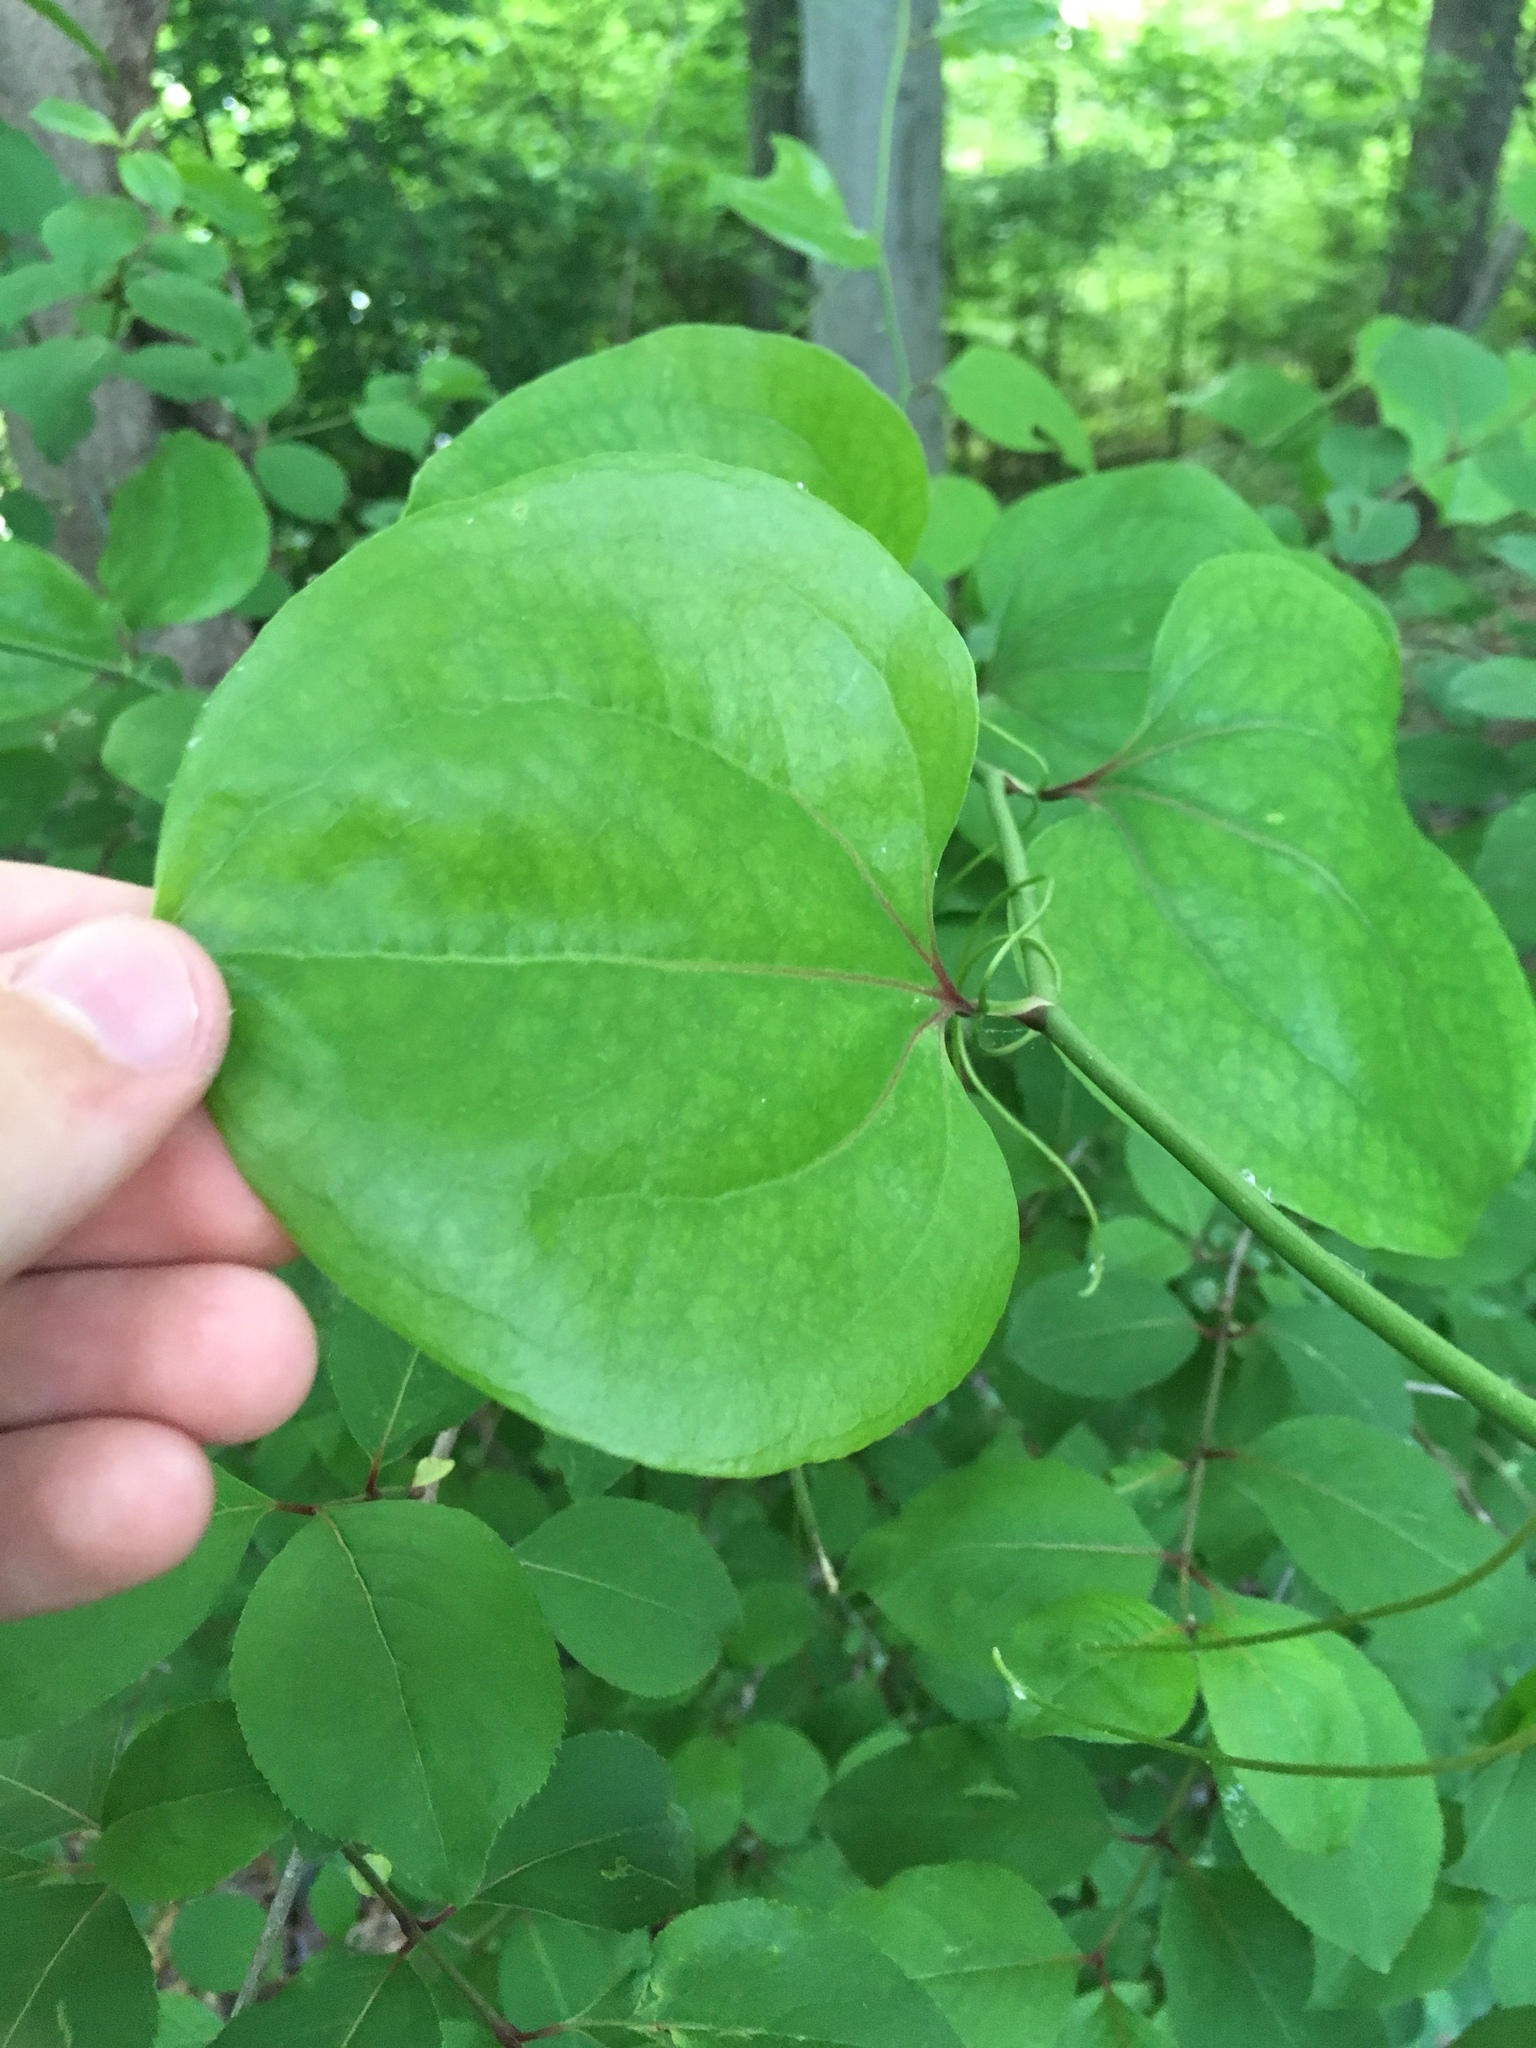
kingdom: Plantae
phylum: Tracheophyta
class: Liliopsida
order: Liliales
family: Smilacaceae
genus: Smilax
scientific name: Smilax rotundifolia
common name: Bullbriar
